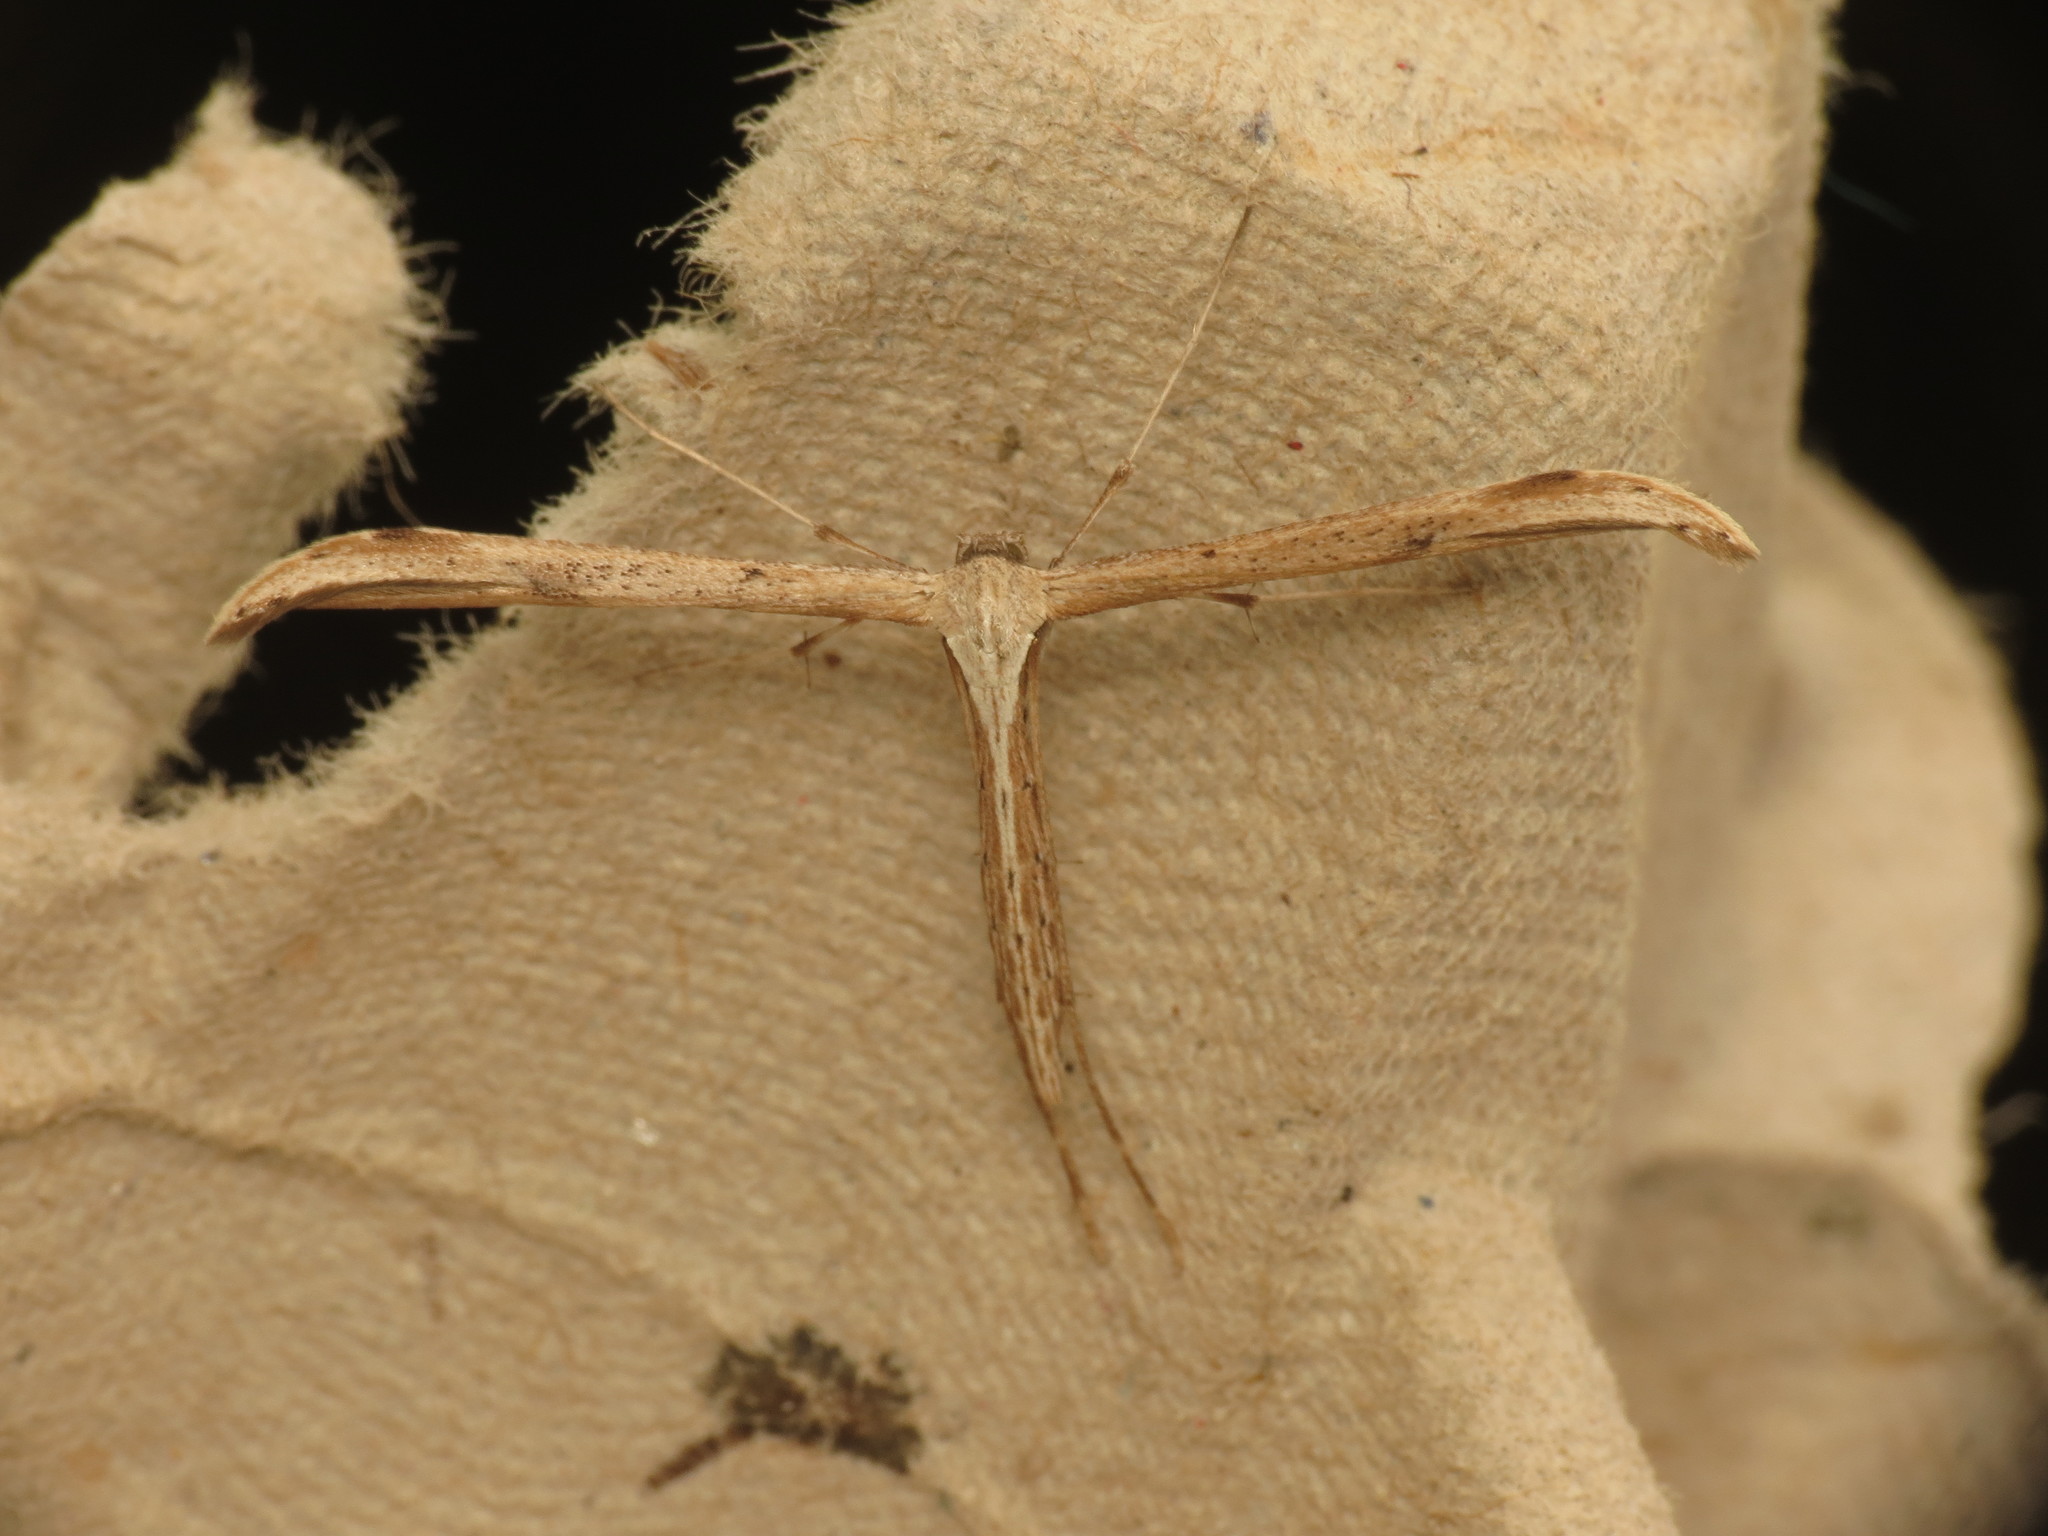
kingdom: Animalia
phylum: Arthropoda
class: Insecta
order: Lepidoptera
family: Pterophoridae
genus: Emmelina
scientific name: Emmelina monodactyla
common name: Common plume
